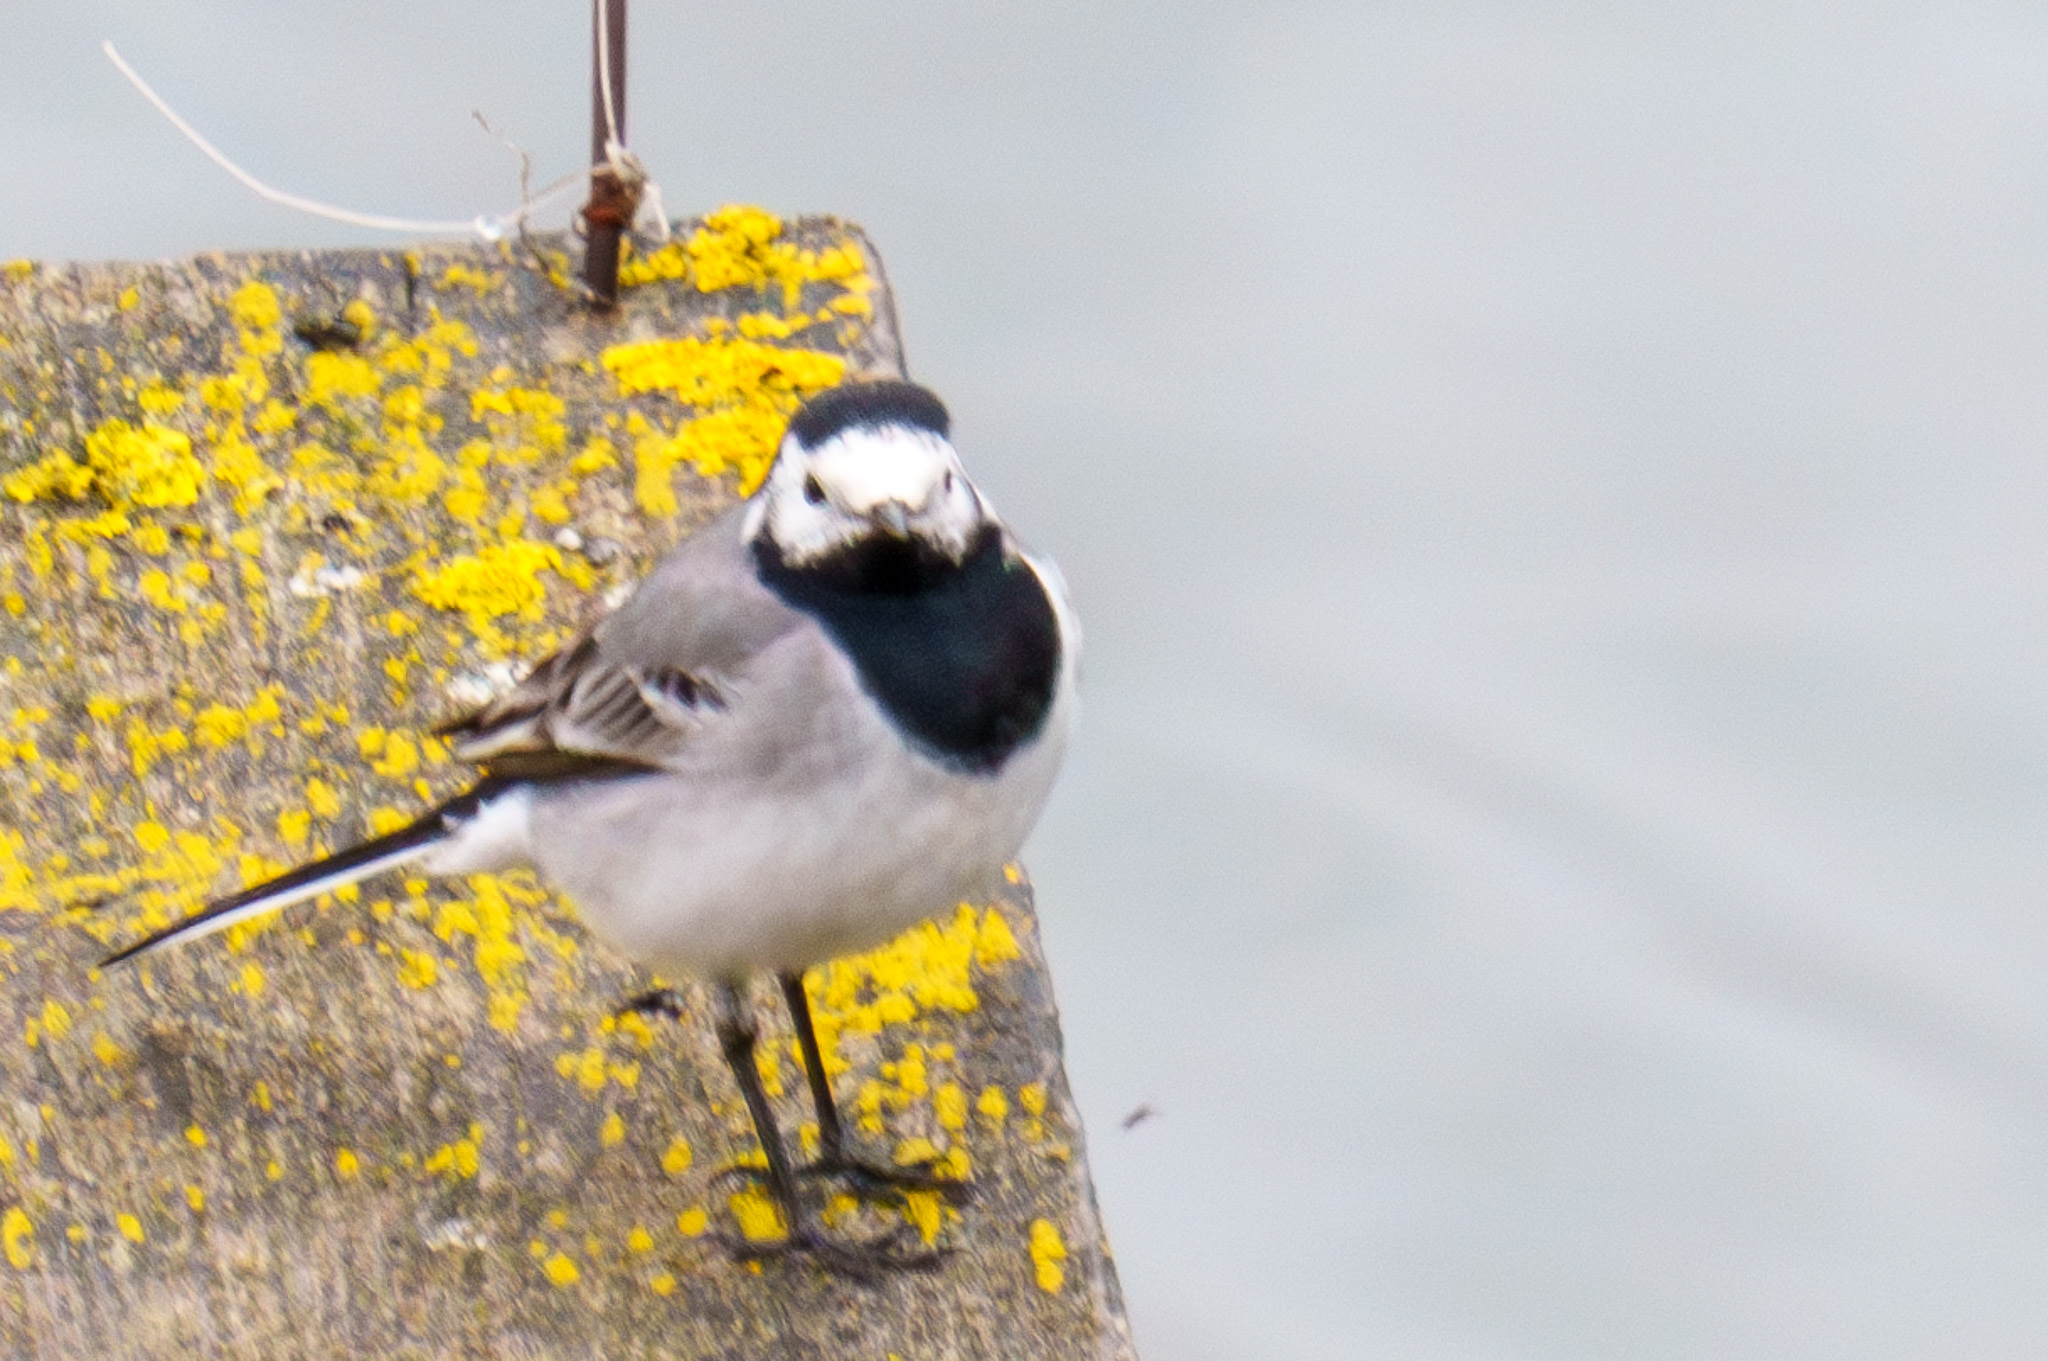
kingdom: Animalia
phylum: Chordata
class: Aves
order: Passeriformes
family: Motacillidae
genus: Motacilla
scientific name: Motacilla alba
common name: White wagtail
